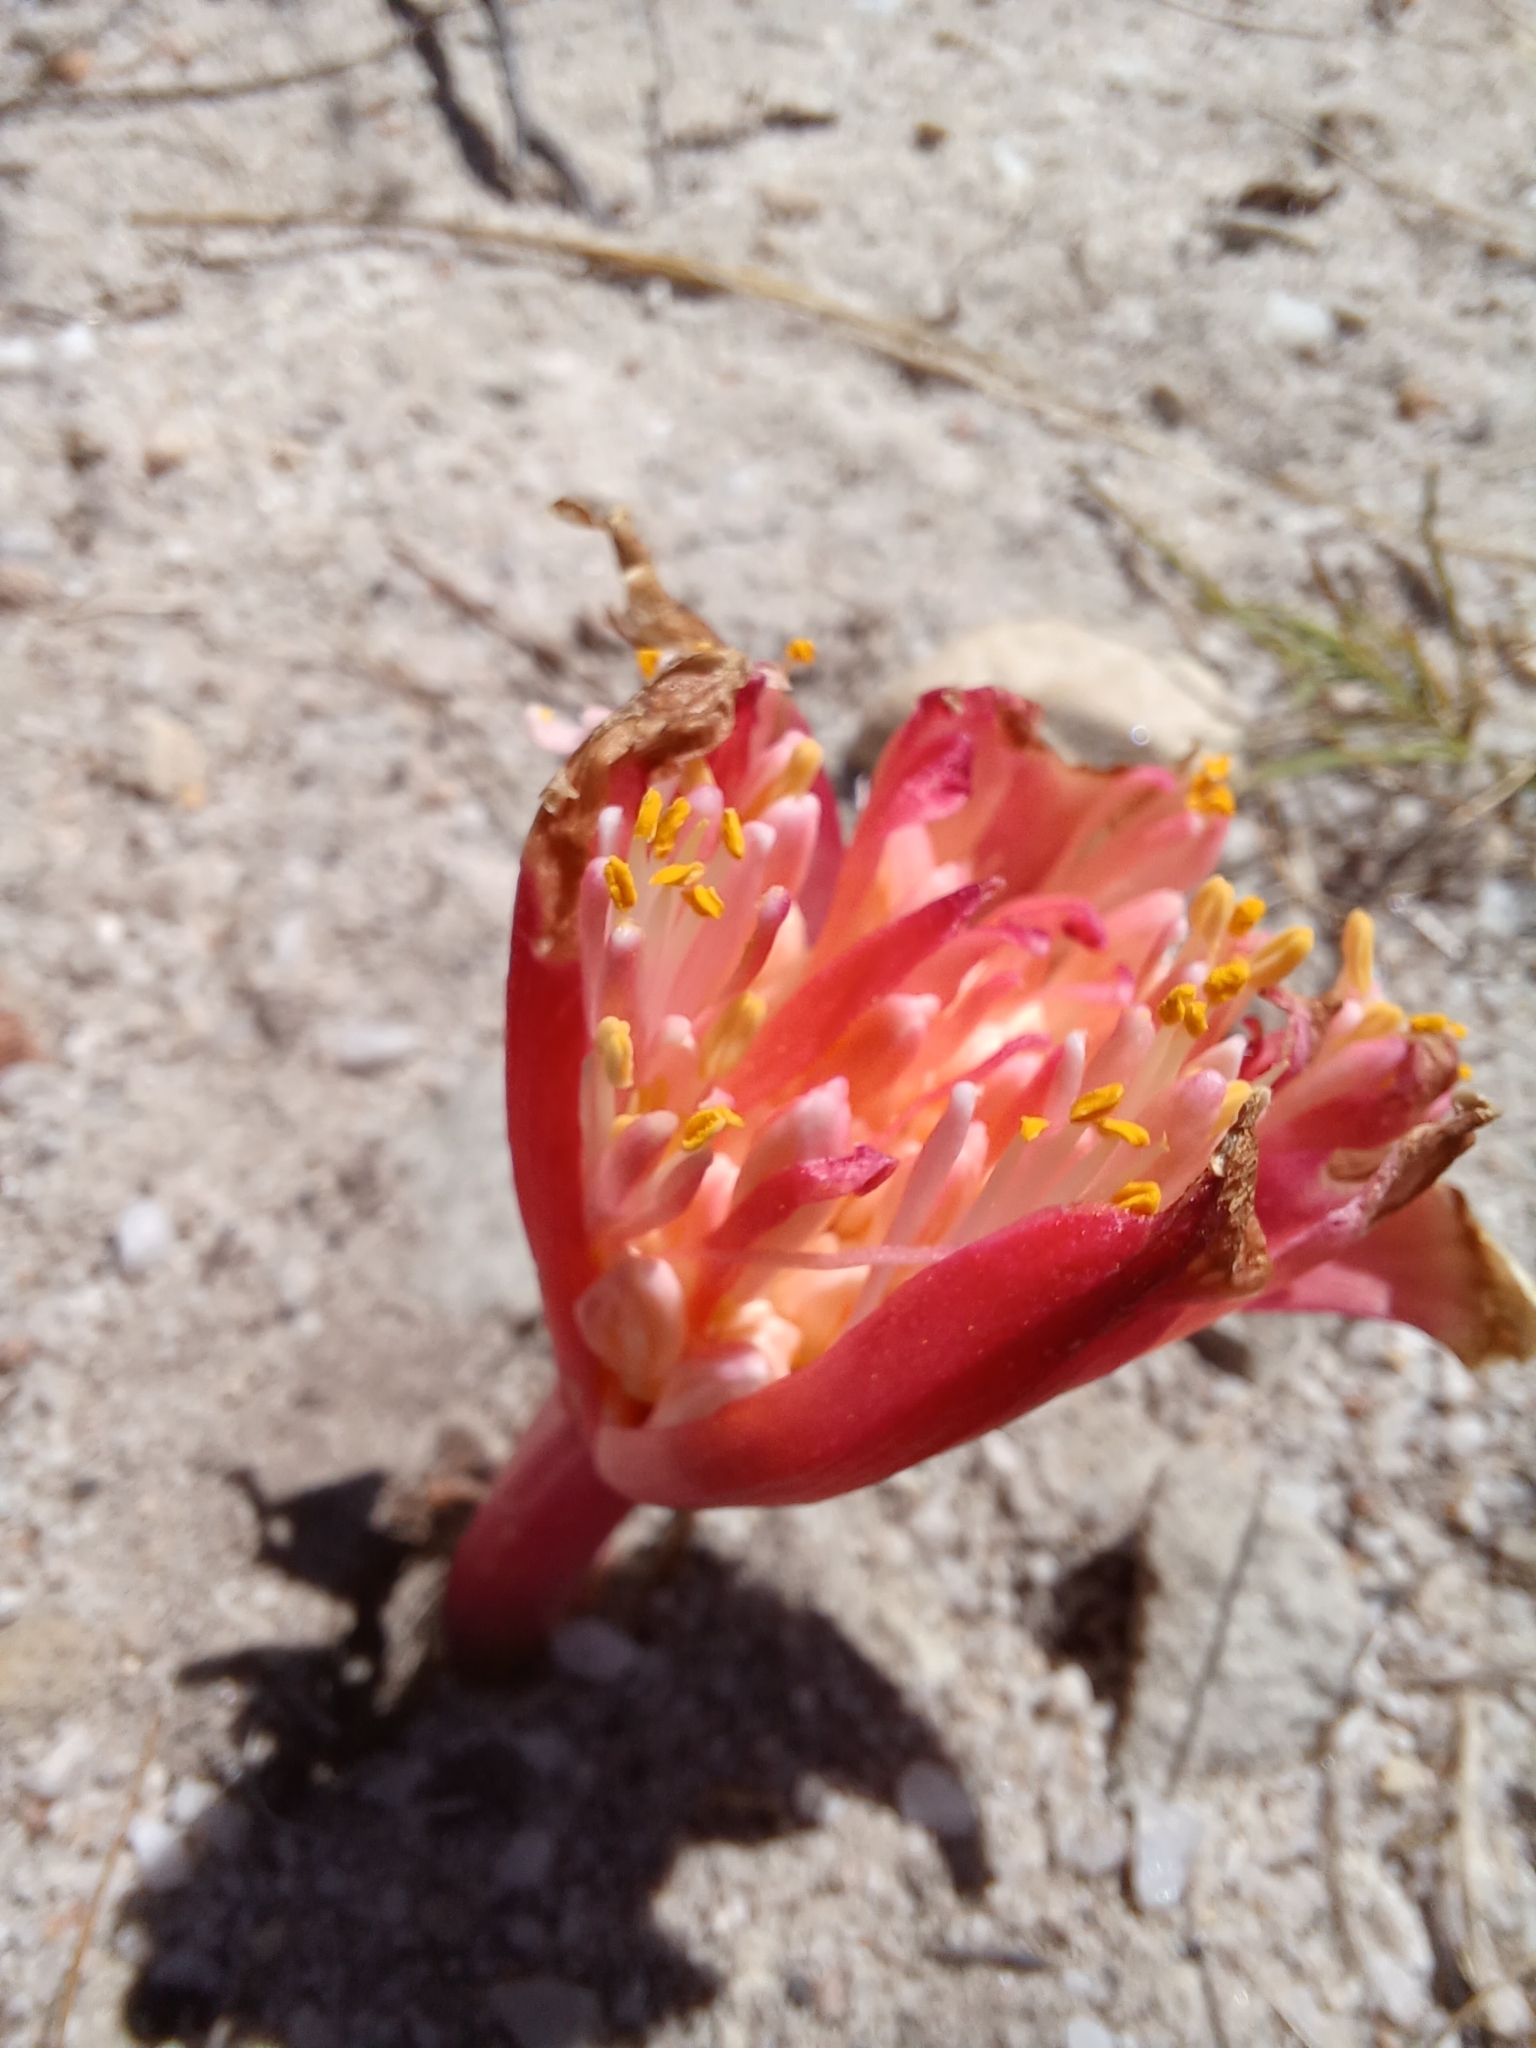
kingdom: Plantae
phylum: Tracheophyta
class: Liliopsida
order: Asparagales
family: Amaryllidaceae
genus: Haemanthus
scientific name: Haemanthus sanguineus
